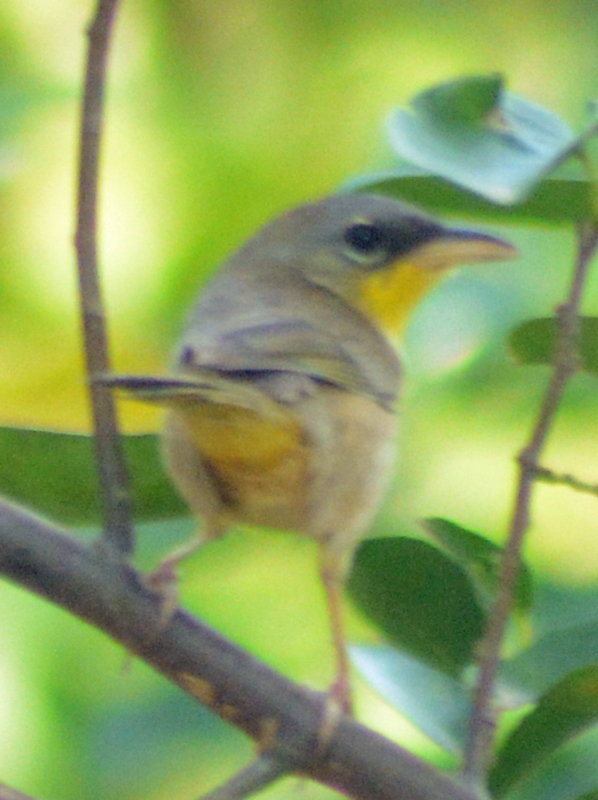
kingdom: Animalia
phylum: Chordata
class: Aves
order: Passeriformes
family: Parulidae
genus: Geothlypis
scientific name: Geothlypis poliocephala
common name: Gray-crowned yellowthroat
